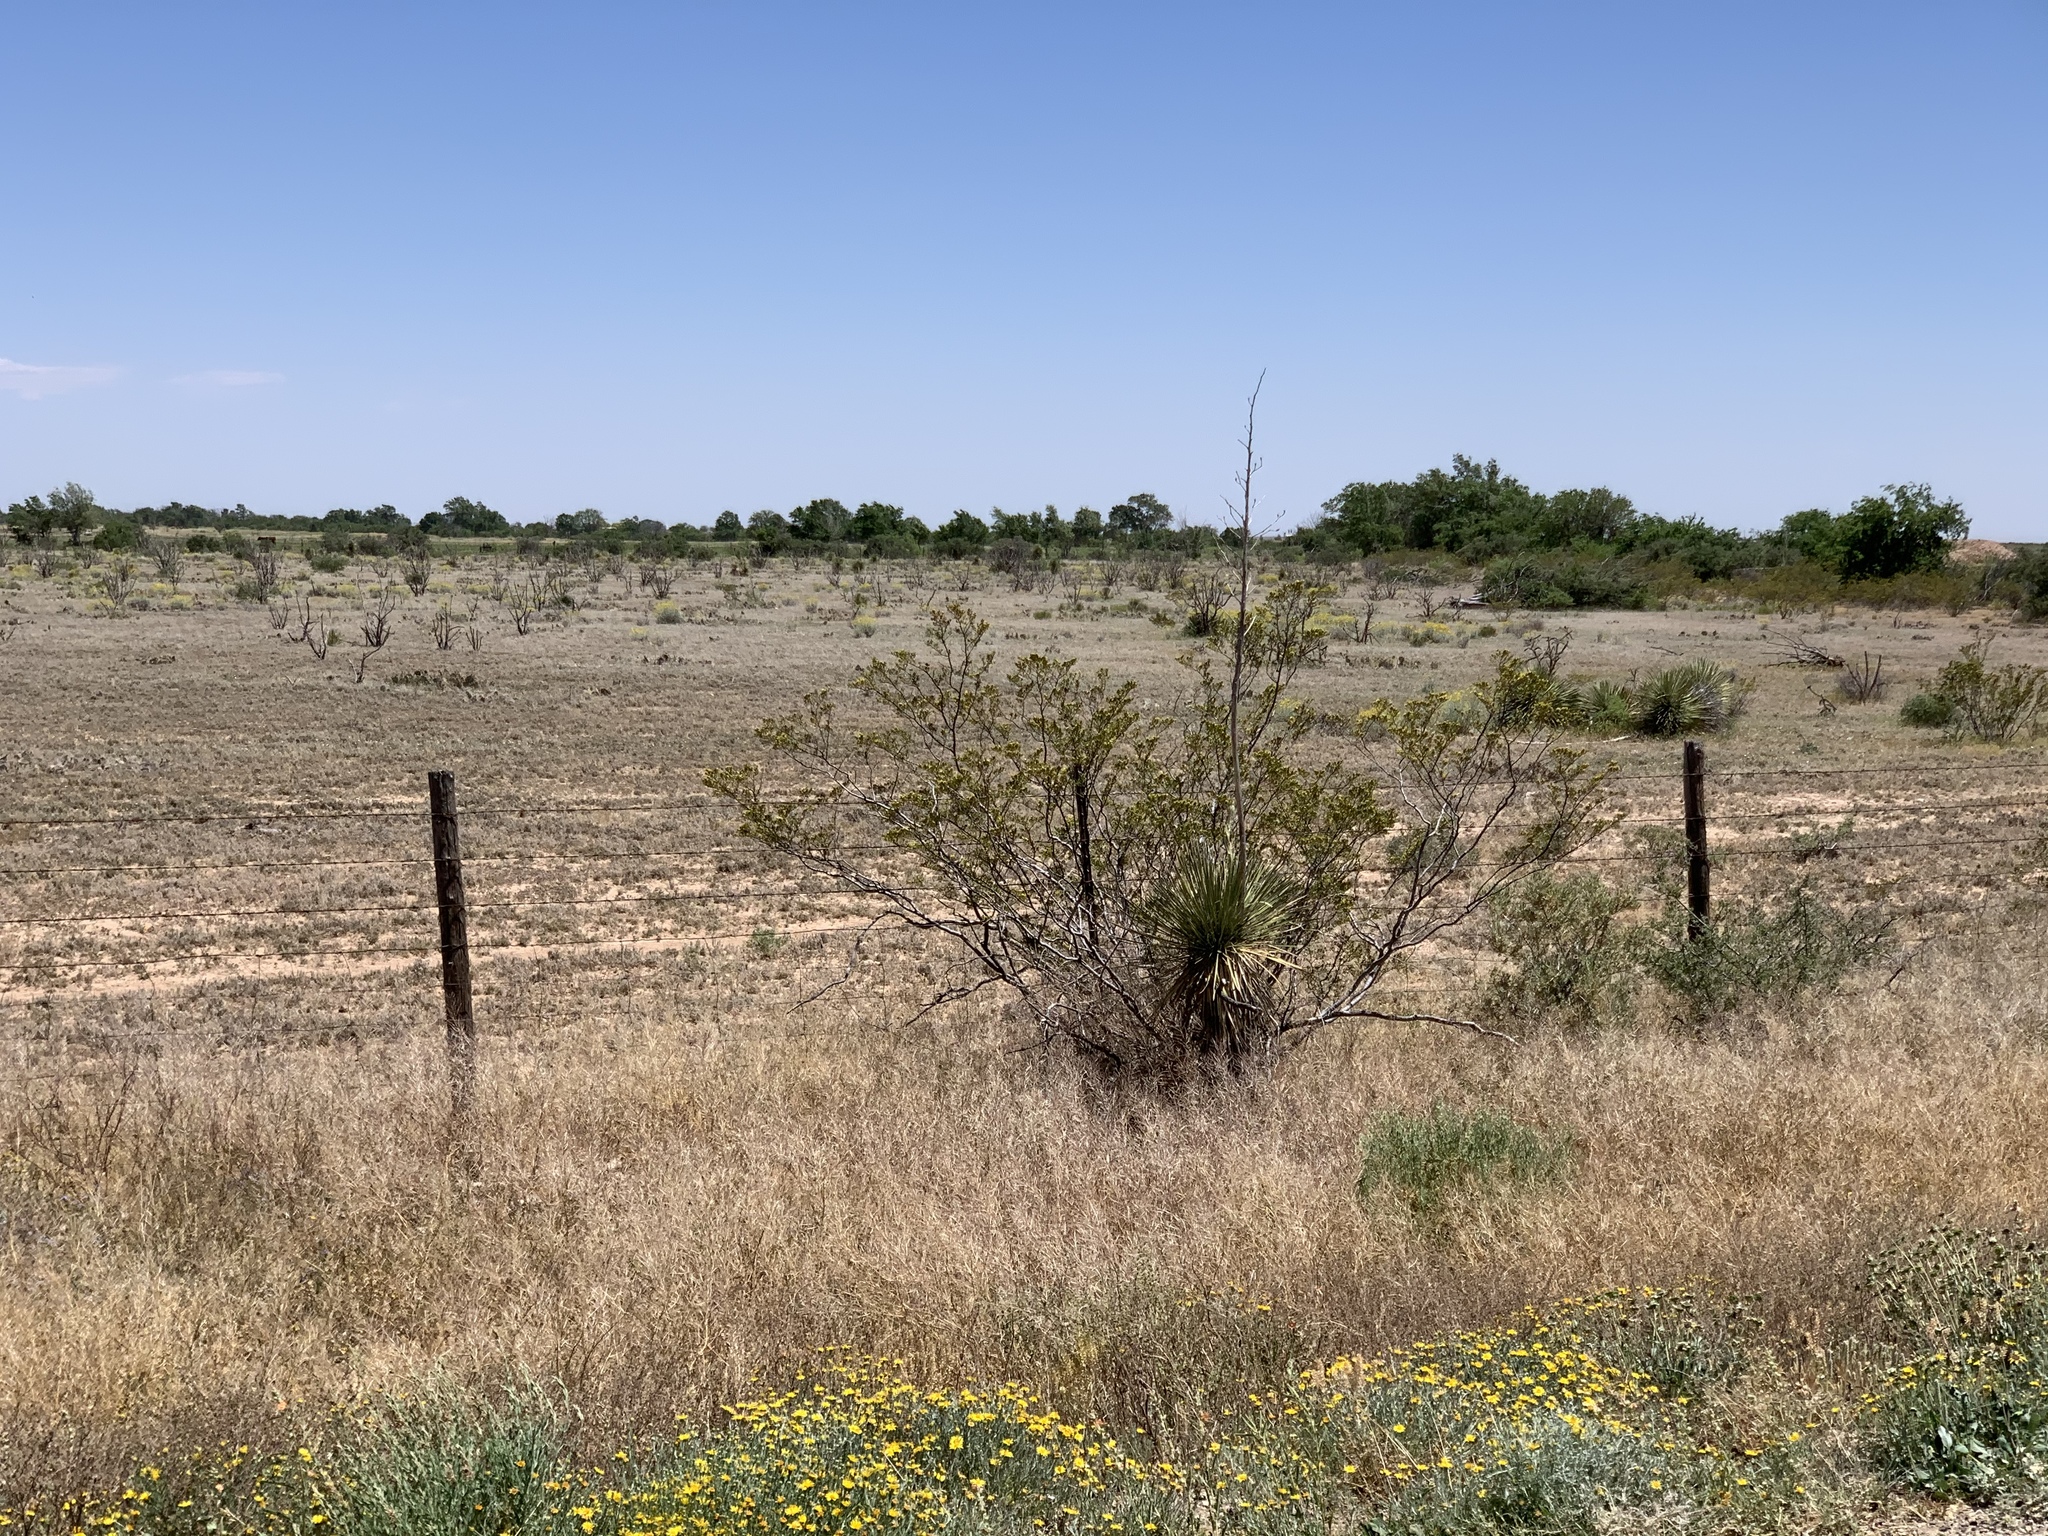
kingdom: Plantae
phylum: Tracheophyta
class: Magnoliopsida
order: Zygophyllales
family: Zygophyllaceae
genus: Larrea
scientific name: Larrea tridentata
